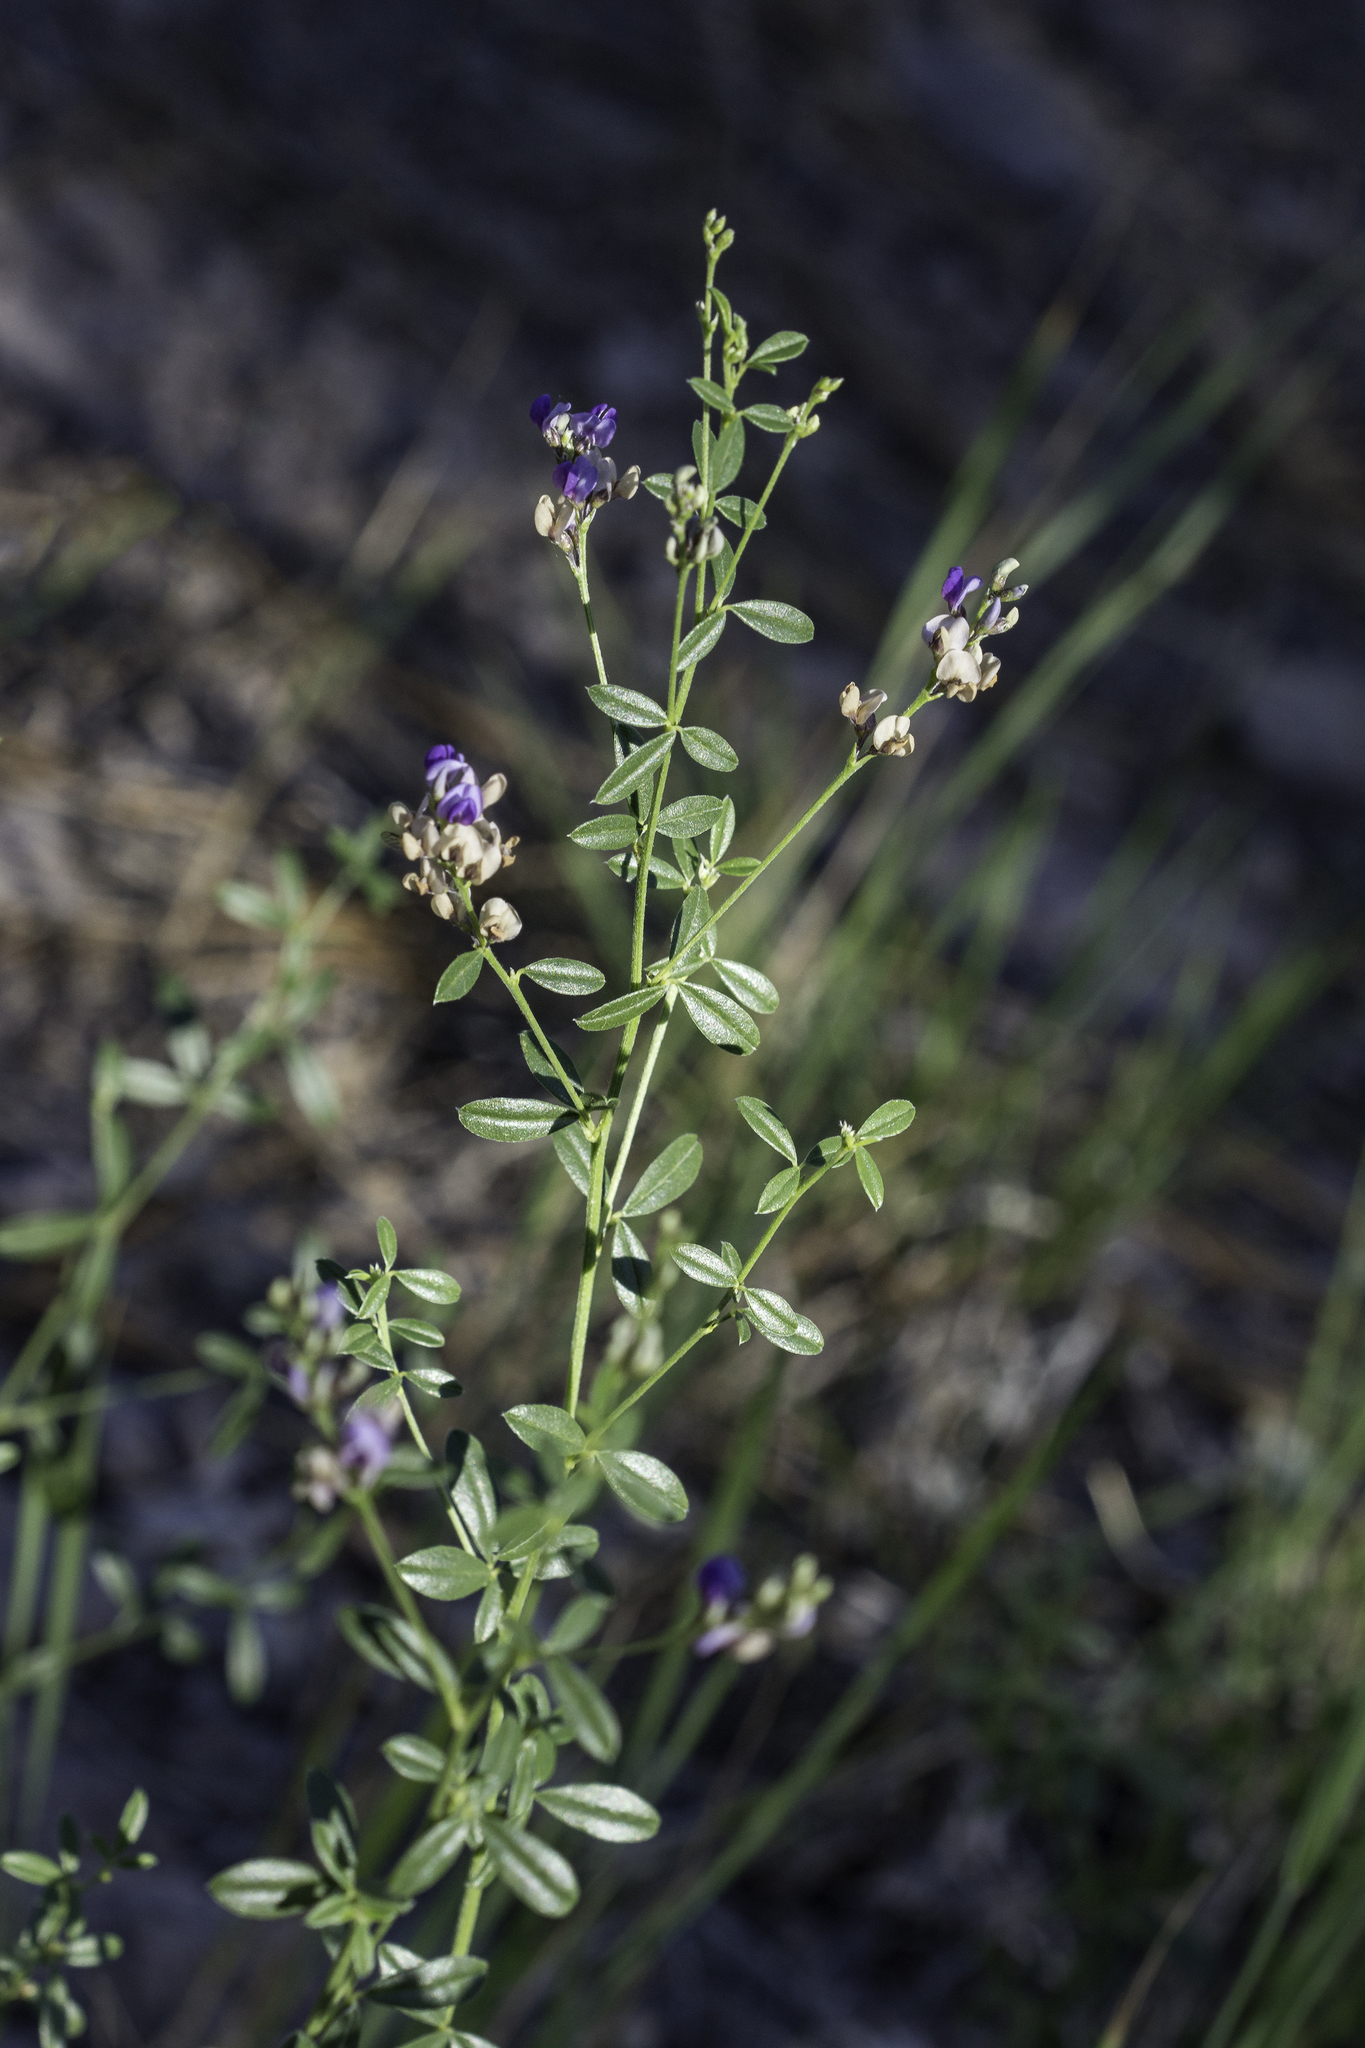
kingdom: Plantae
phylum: Tracheophyta
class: Magnoliopsida
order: Fabales
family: Fabaceae
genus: Pediomelum
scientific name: Pediomelum tenuiflorum
